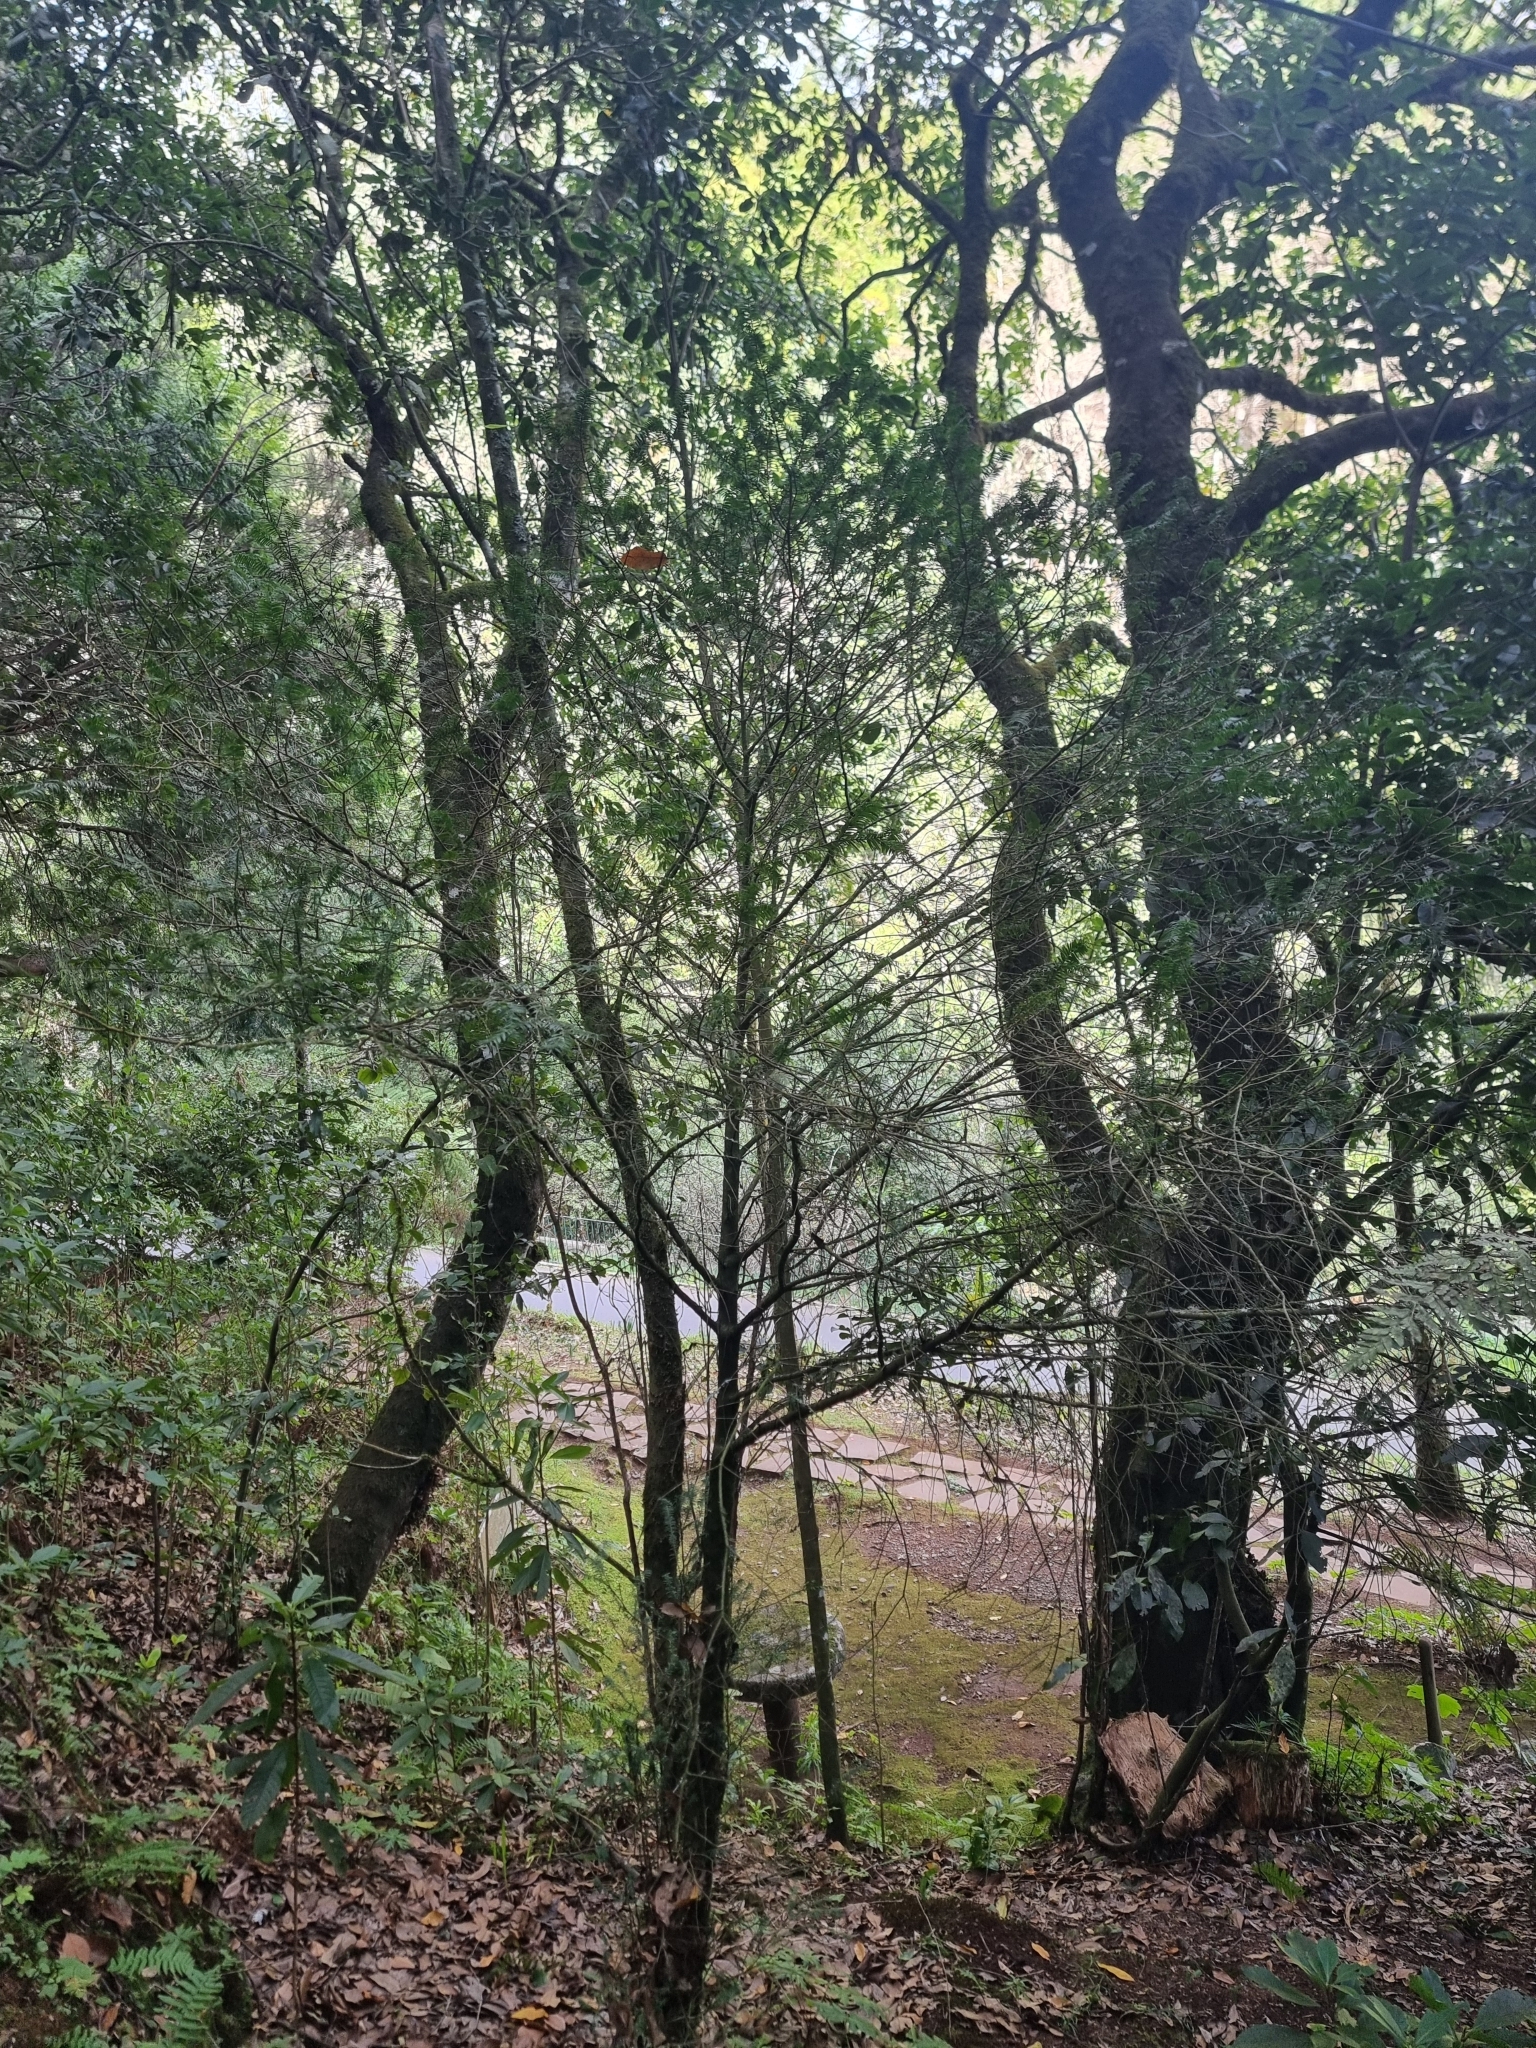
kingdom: Plantae
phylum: Tracheophyta
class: Pinopsida
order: Pinales
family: Taxaceae
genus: Taxus
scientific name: Taxus baccata
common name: Yew
